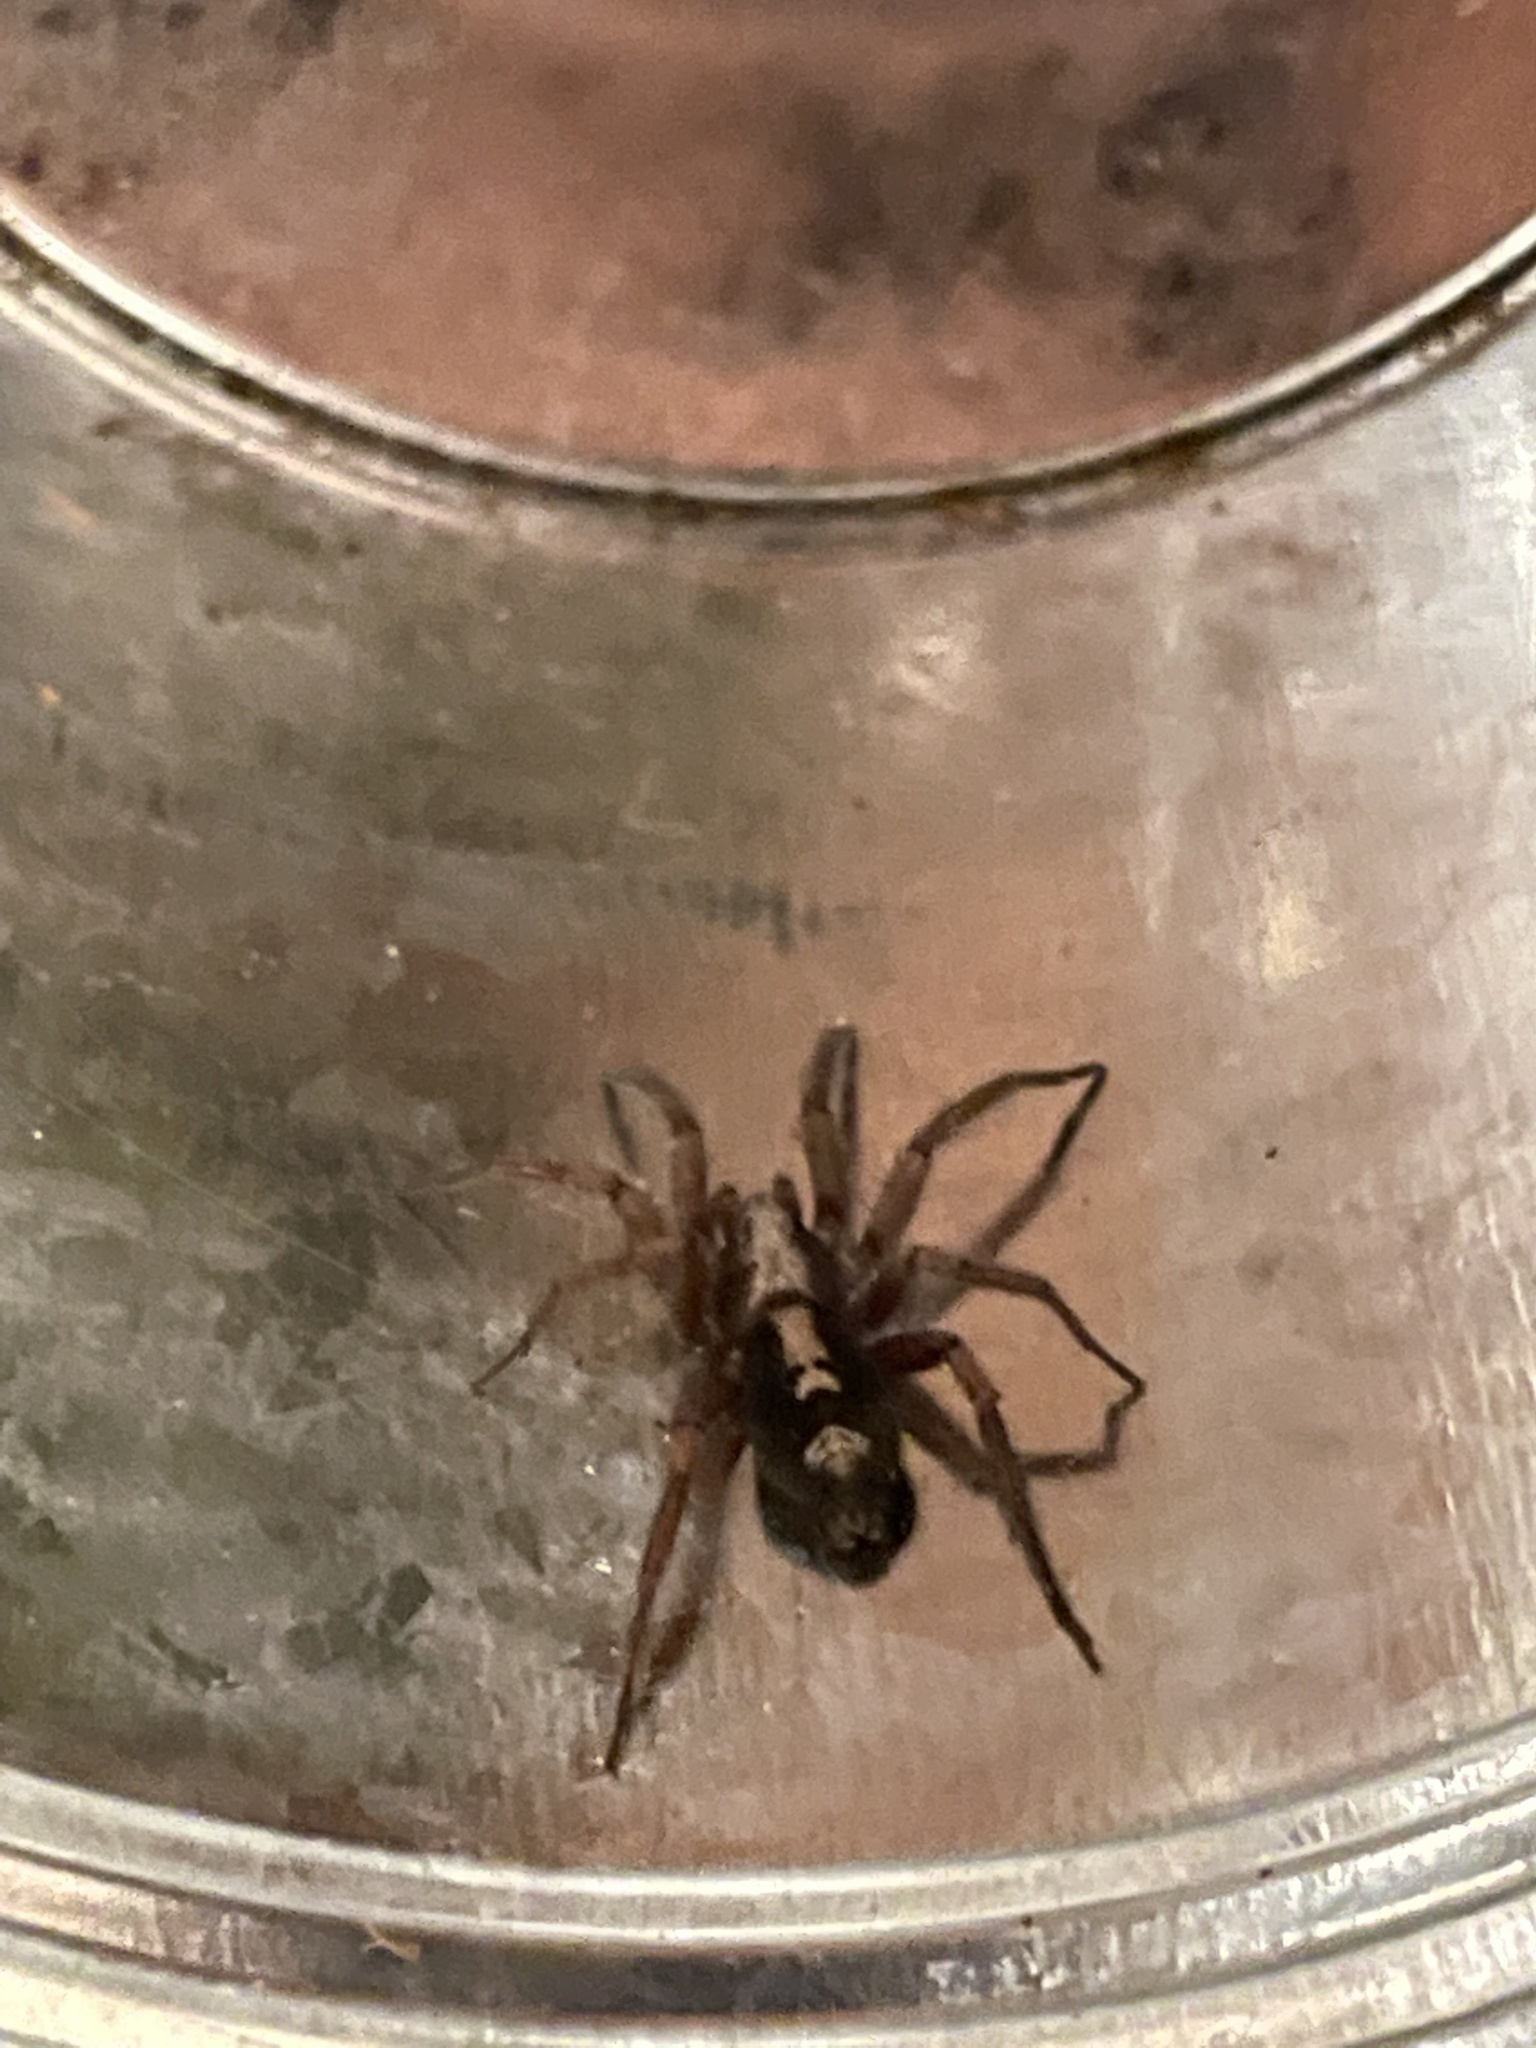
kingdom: Animalia
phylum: Arthropoda
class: Arachnida
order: Araneae
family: Gnaphosidae
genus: Herpyllus
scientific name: Herpyllus ecclesiasticus
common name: Eastern parson spider
